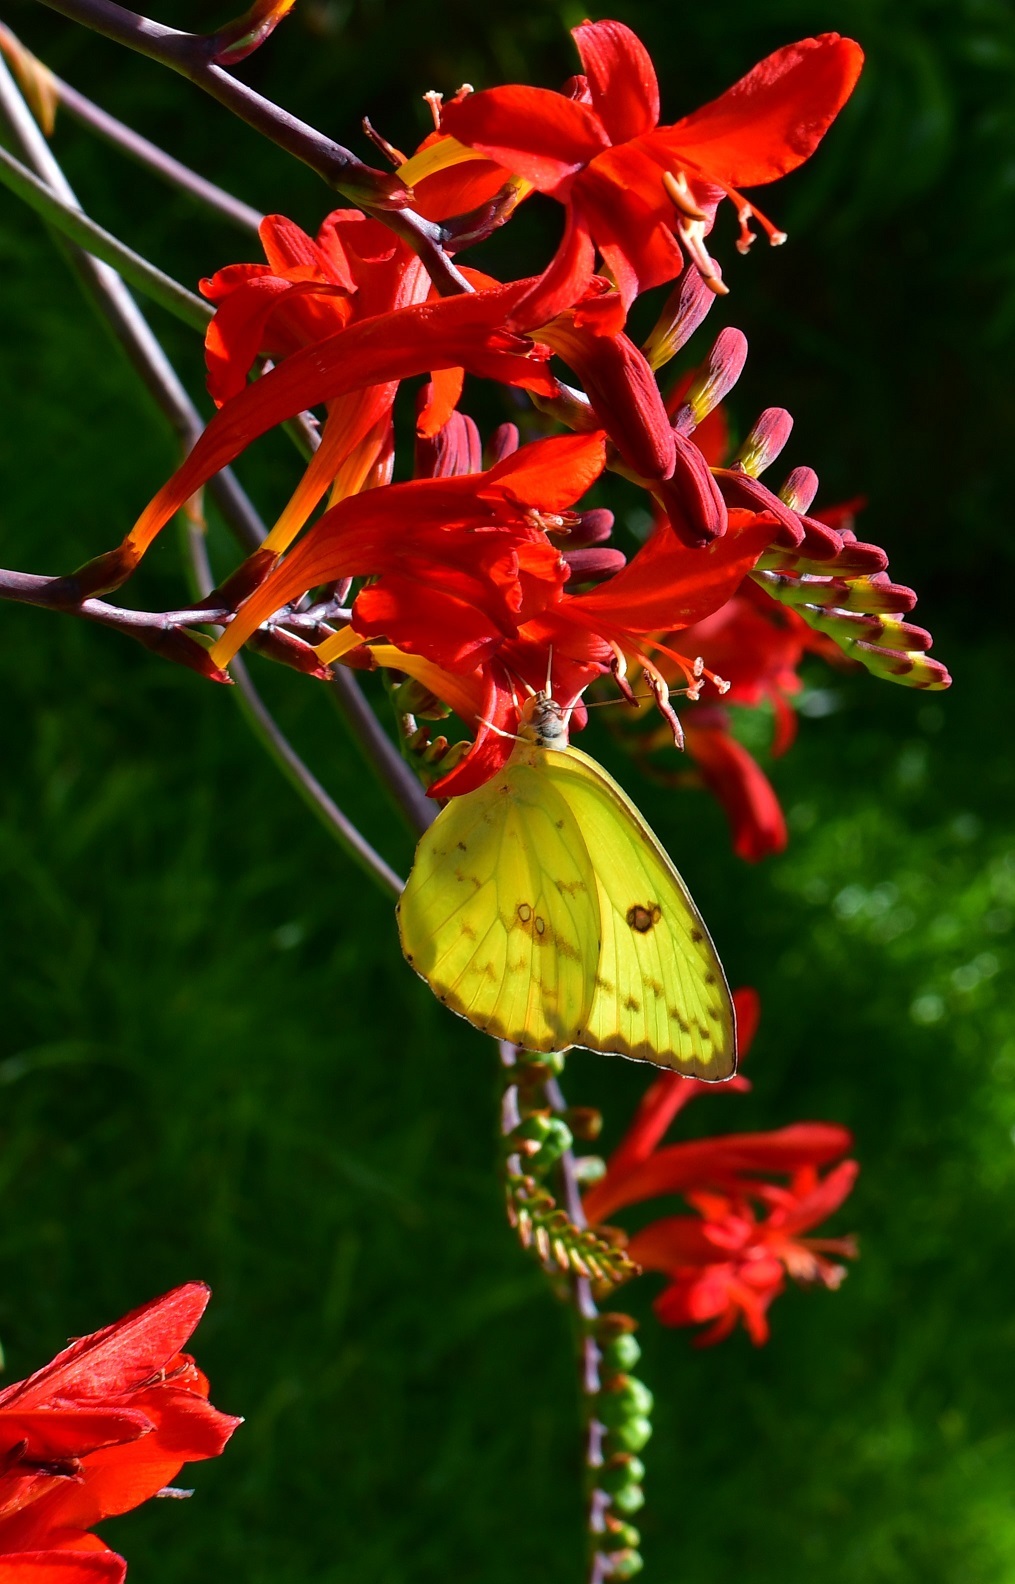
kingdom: Animalia
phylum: Arthropoda
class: Insecta
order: Lepidoptera
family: Pieridae
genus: Phoebis
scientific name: Phoebis marcellina
